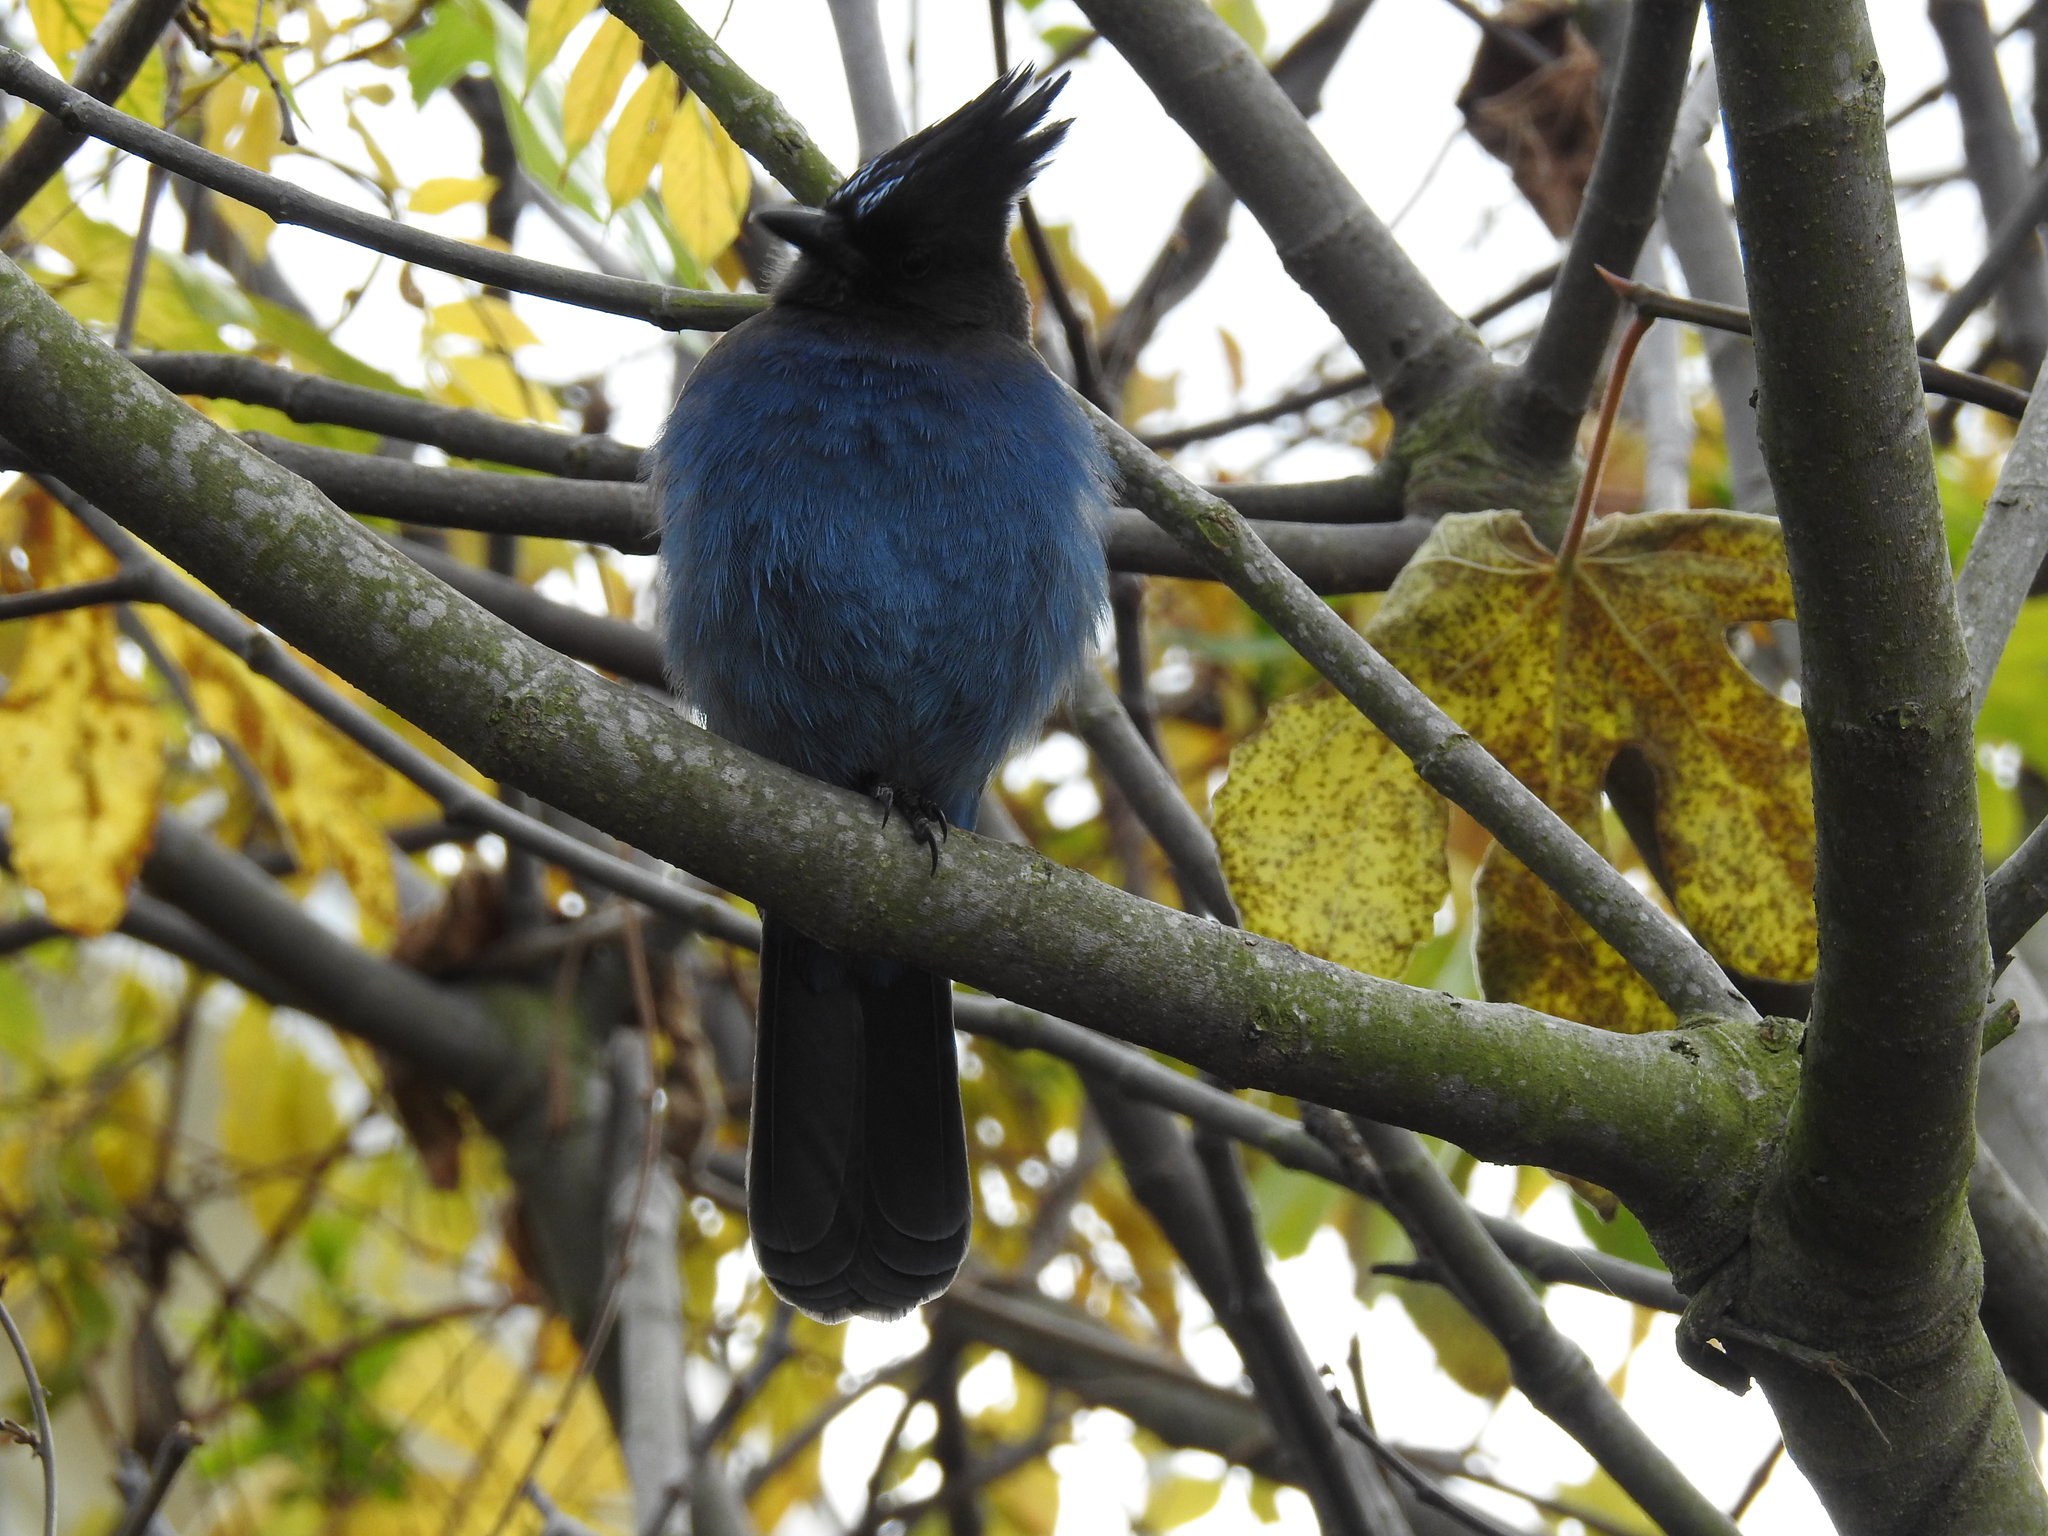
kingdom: Animalia
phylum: Chordata
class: Aves
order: Passeriformes
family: Corvidae
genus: Cyanocitta
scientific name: Cyanocitta stelleri
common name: Steller's jay
